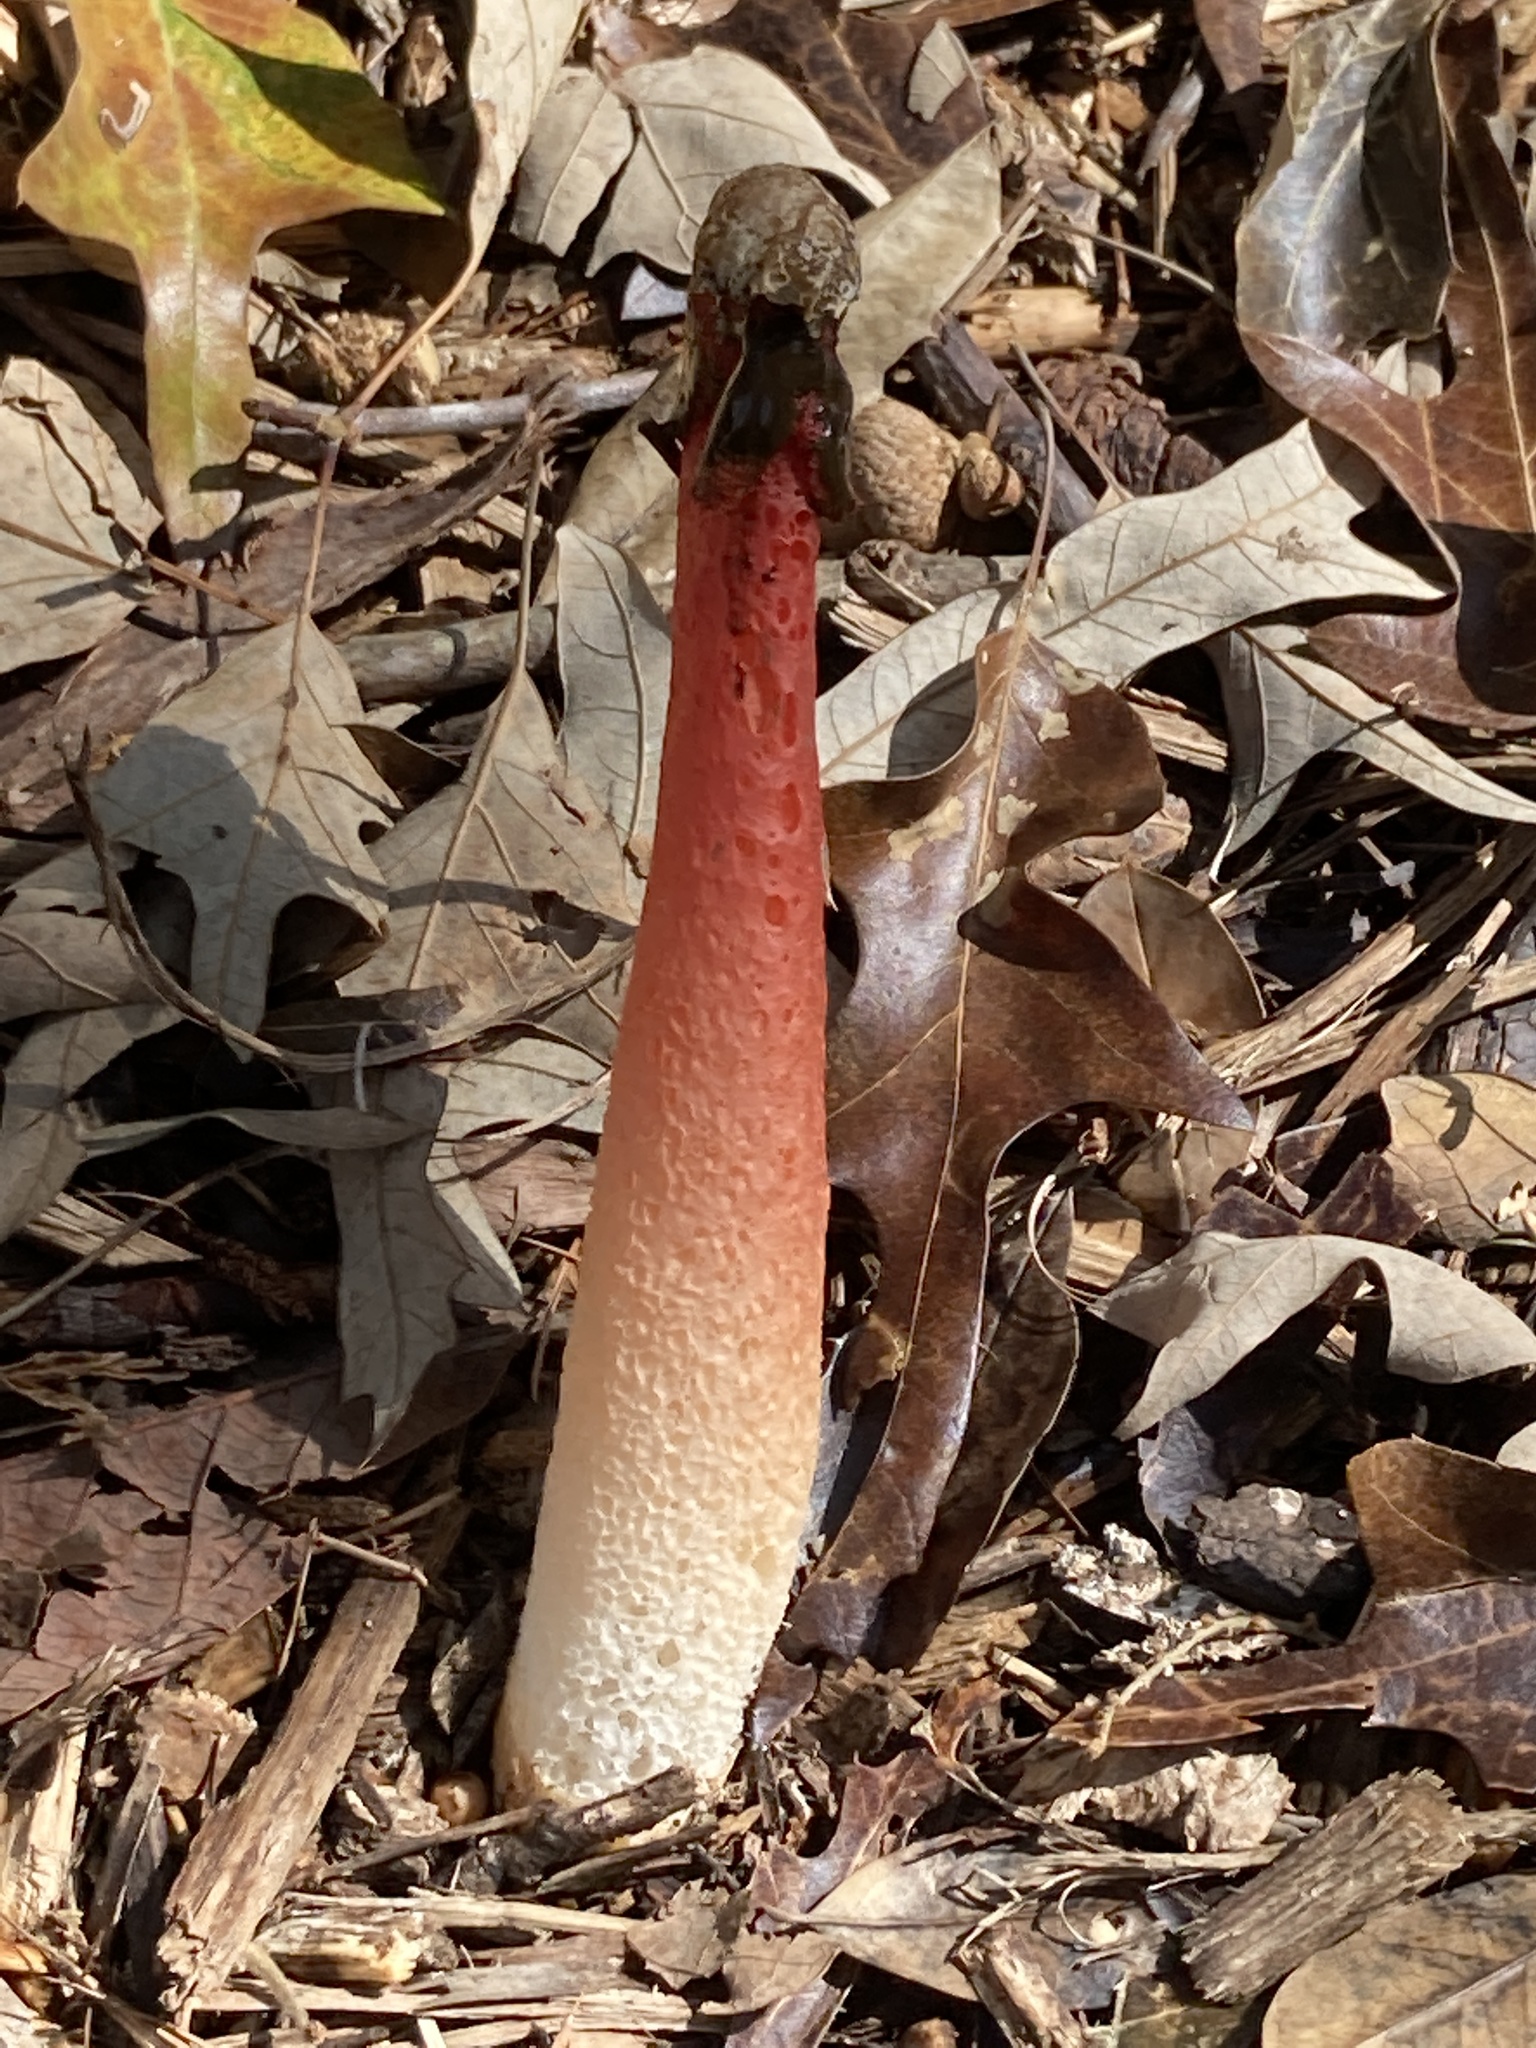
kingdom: Fungi
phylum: Basidiomycota
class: Agaricomycetes
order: Phallales
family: Phallaceae
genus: Phallus
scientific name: Phallus rugulosus
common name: Wrinkly stinkhorn
